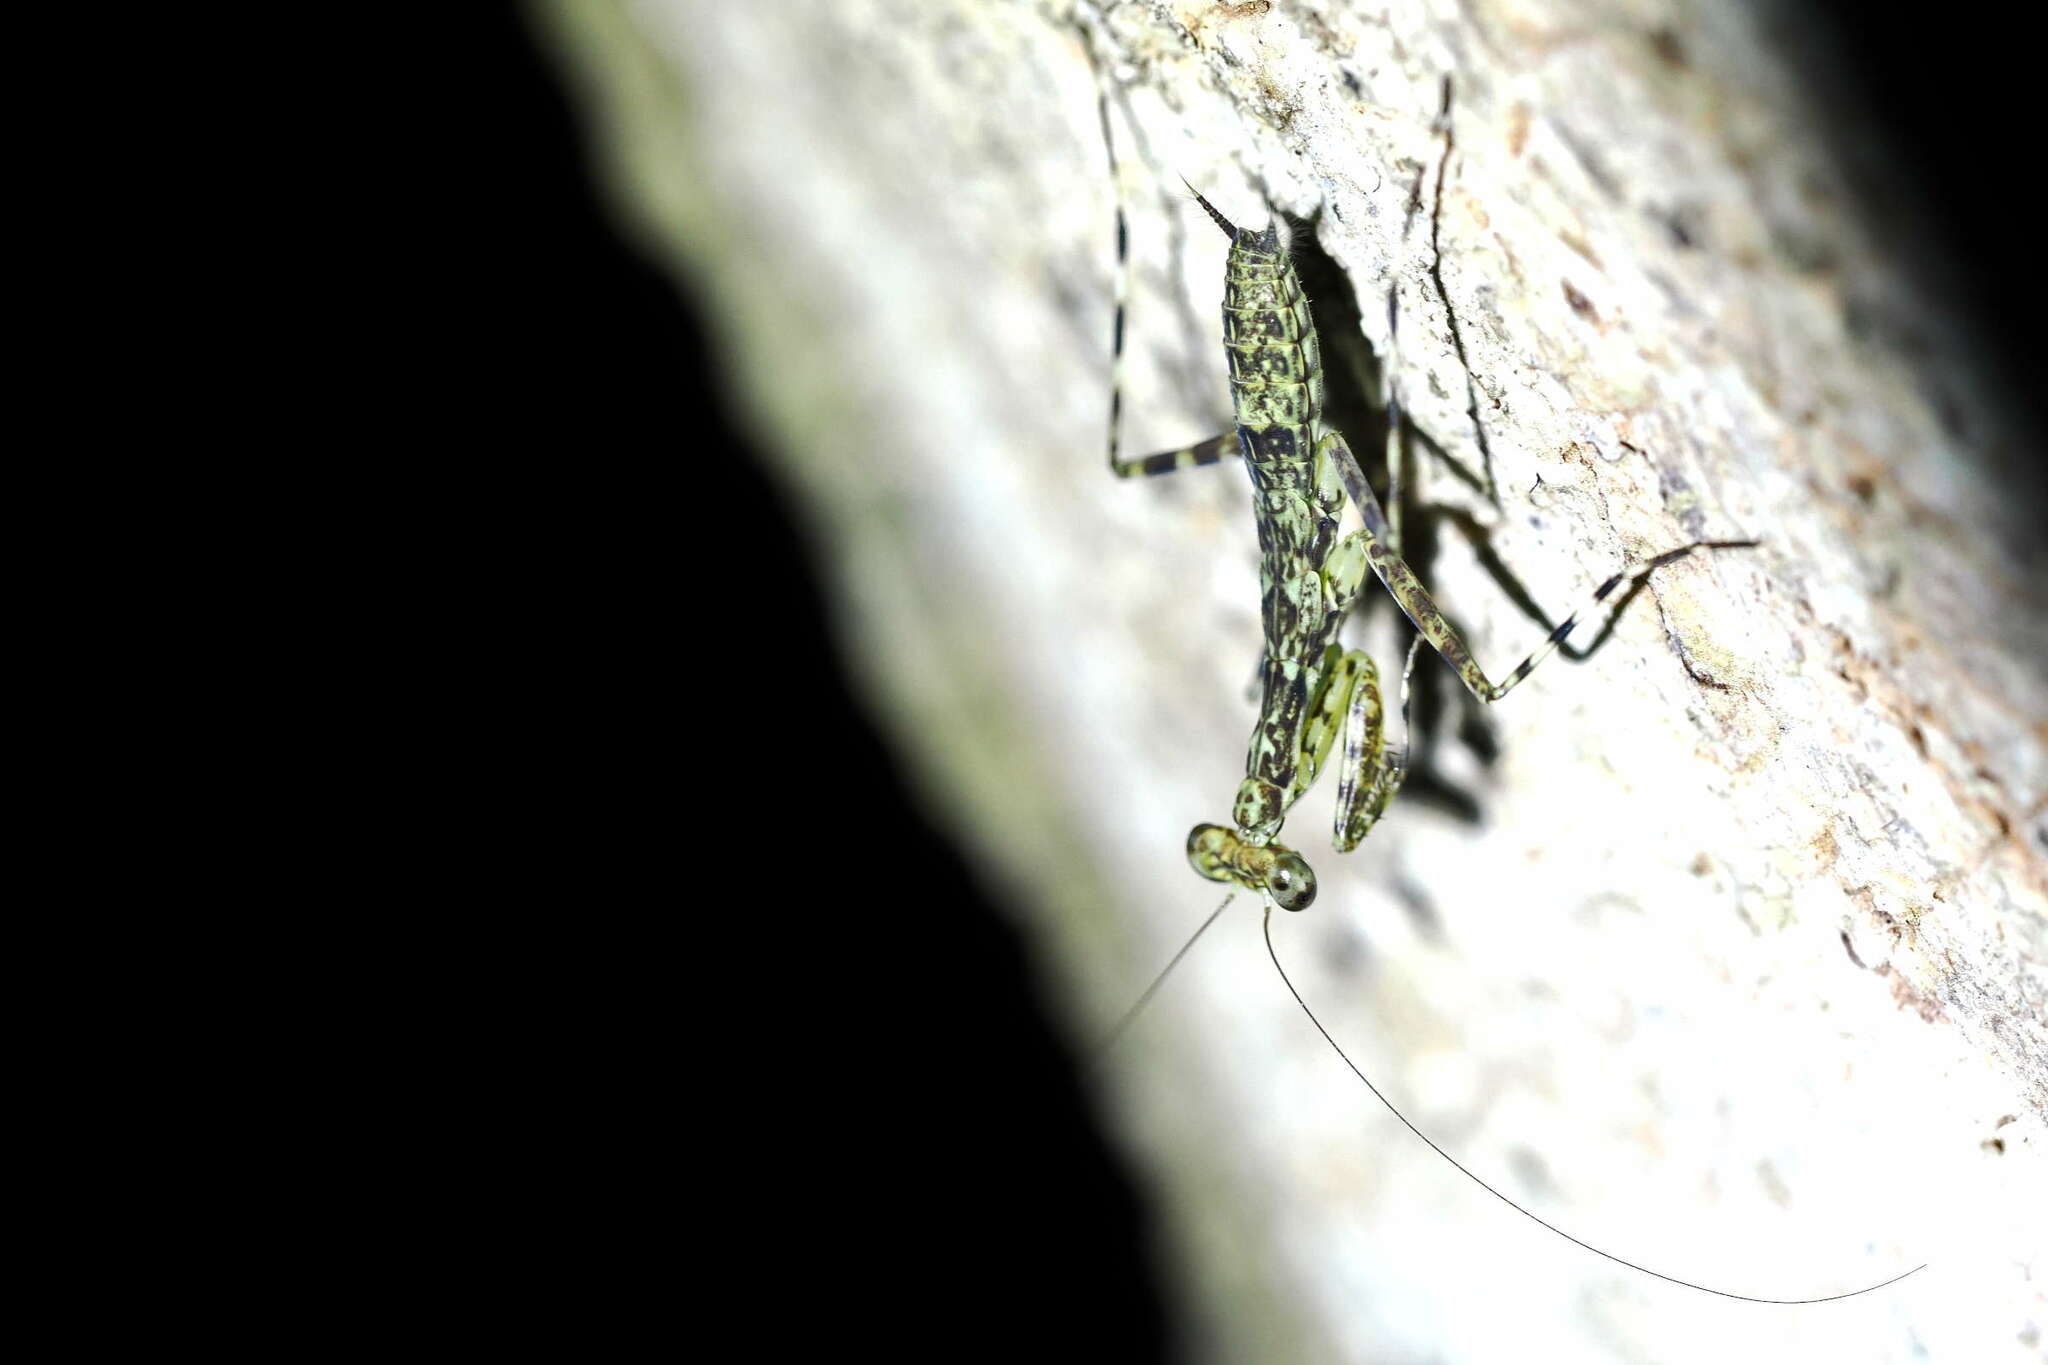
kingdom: Animalia
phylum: Arthropoda
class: Insecta
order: Mantodea
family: Liturgusidae
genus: Liturgusa
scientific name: Liturgusa trinidadensis
